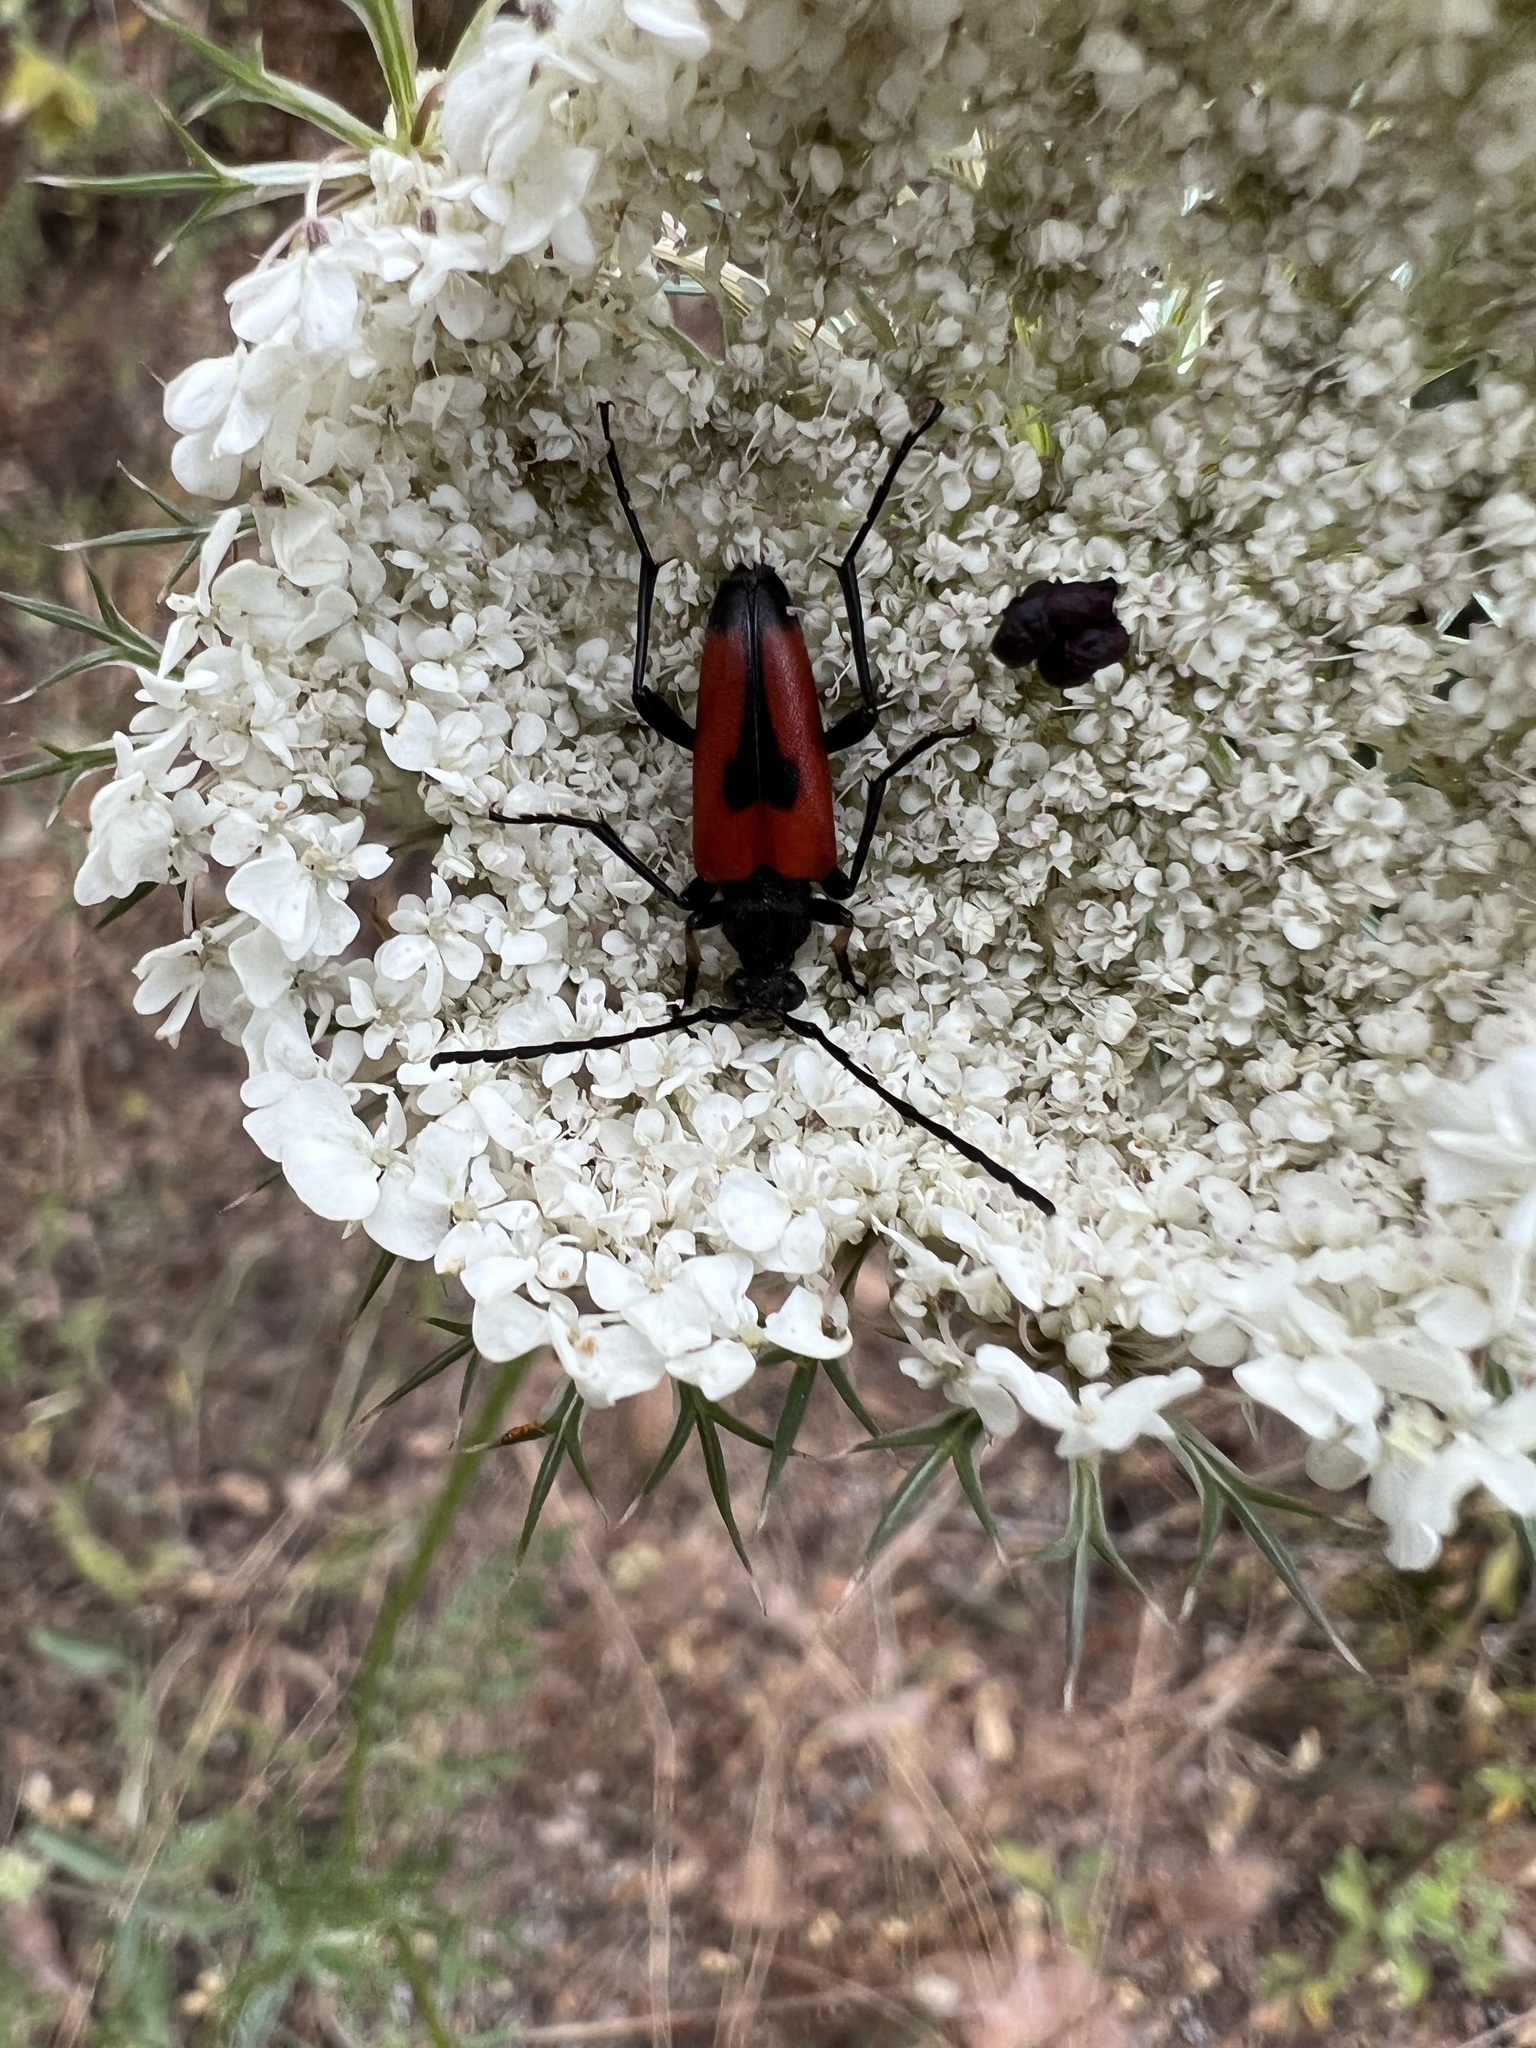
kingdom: Animalia
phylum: Arthropoda
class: Insecta
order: Coleoptera
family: Cerambycidae
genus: Stictoleptura
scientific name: Stictoleptura cordigera
